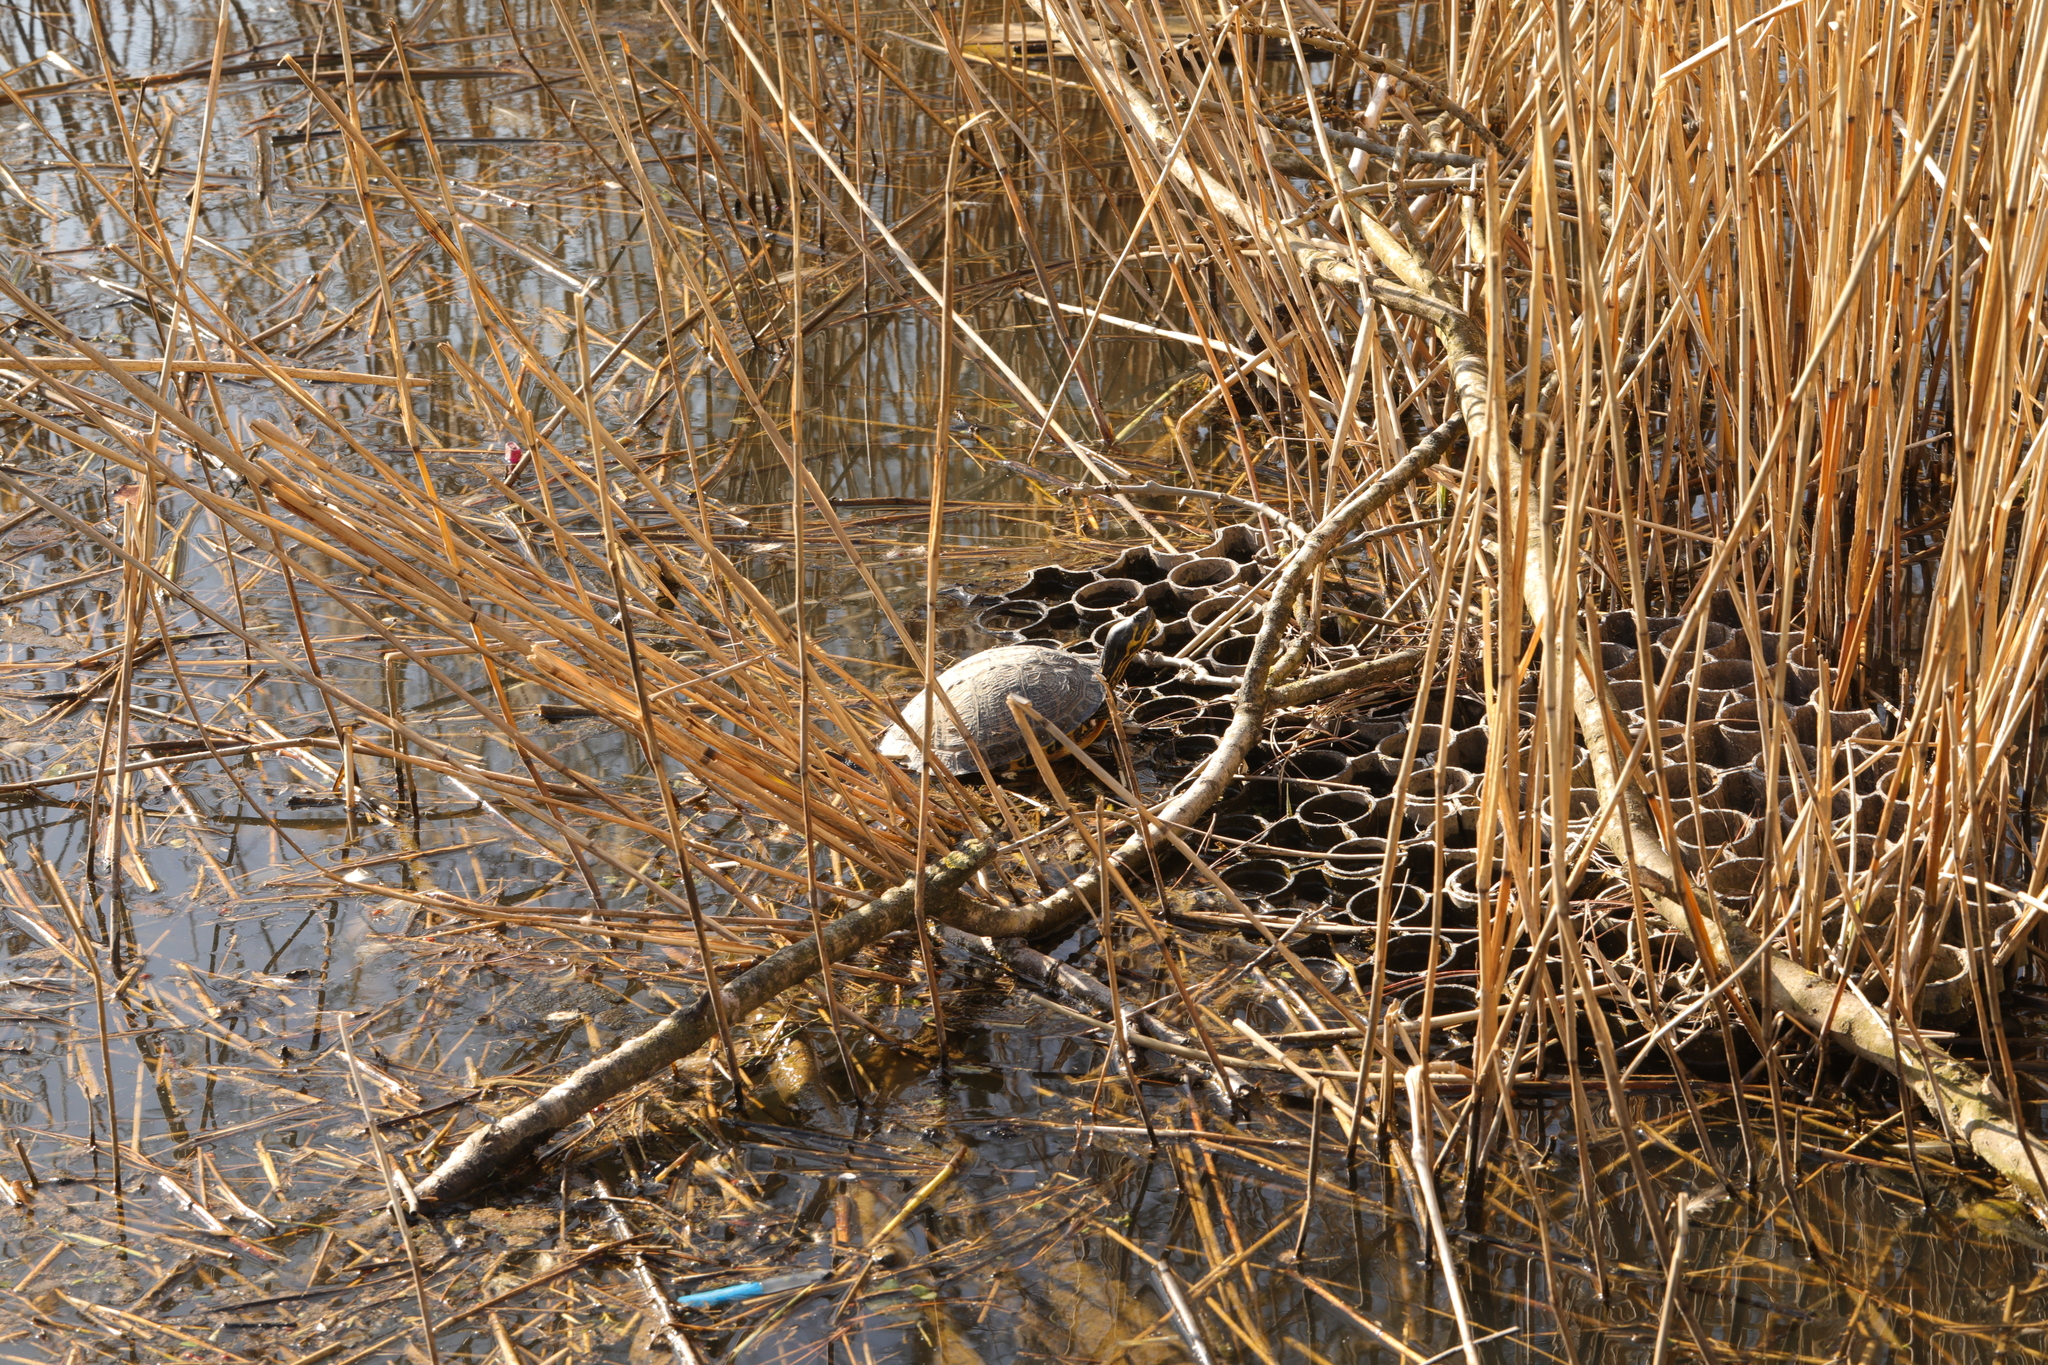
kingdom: Animalia
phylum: Chordata
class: Testudines
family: Emydidae
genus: Trachemys
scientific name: Trachemys scripta
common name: Slider
